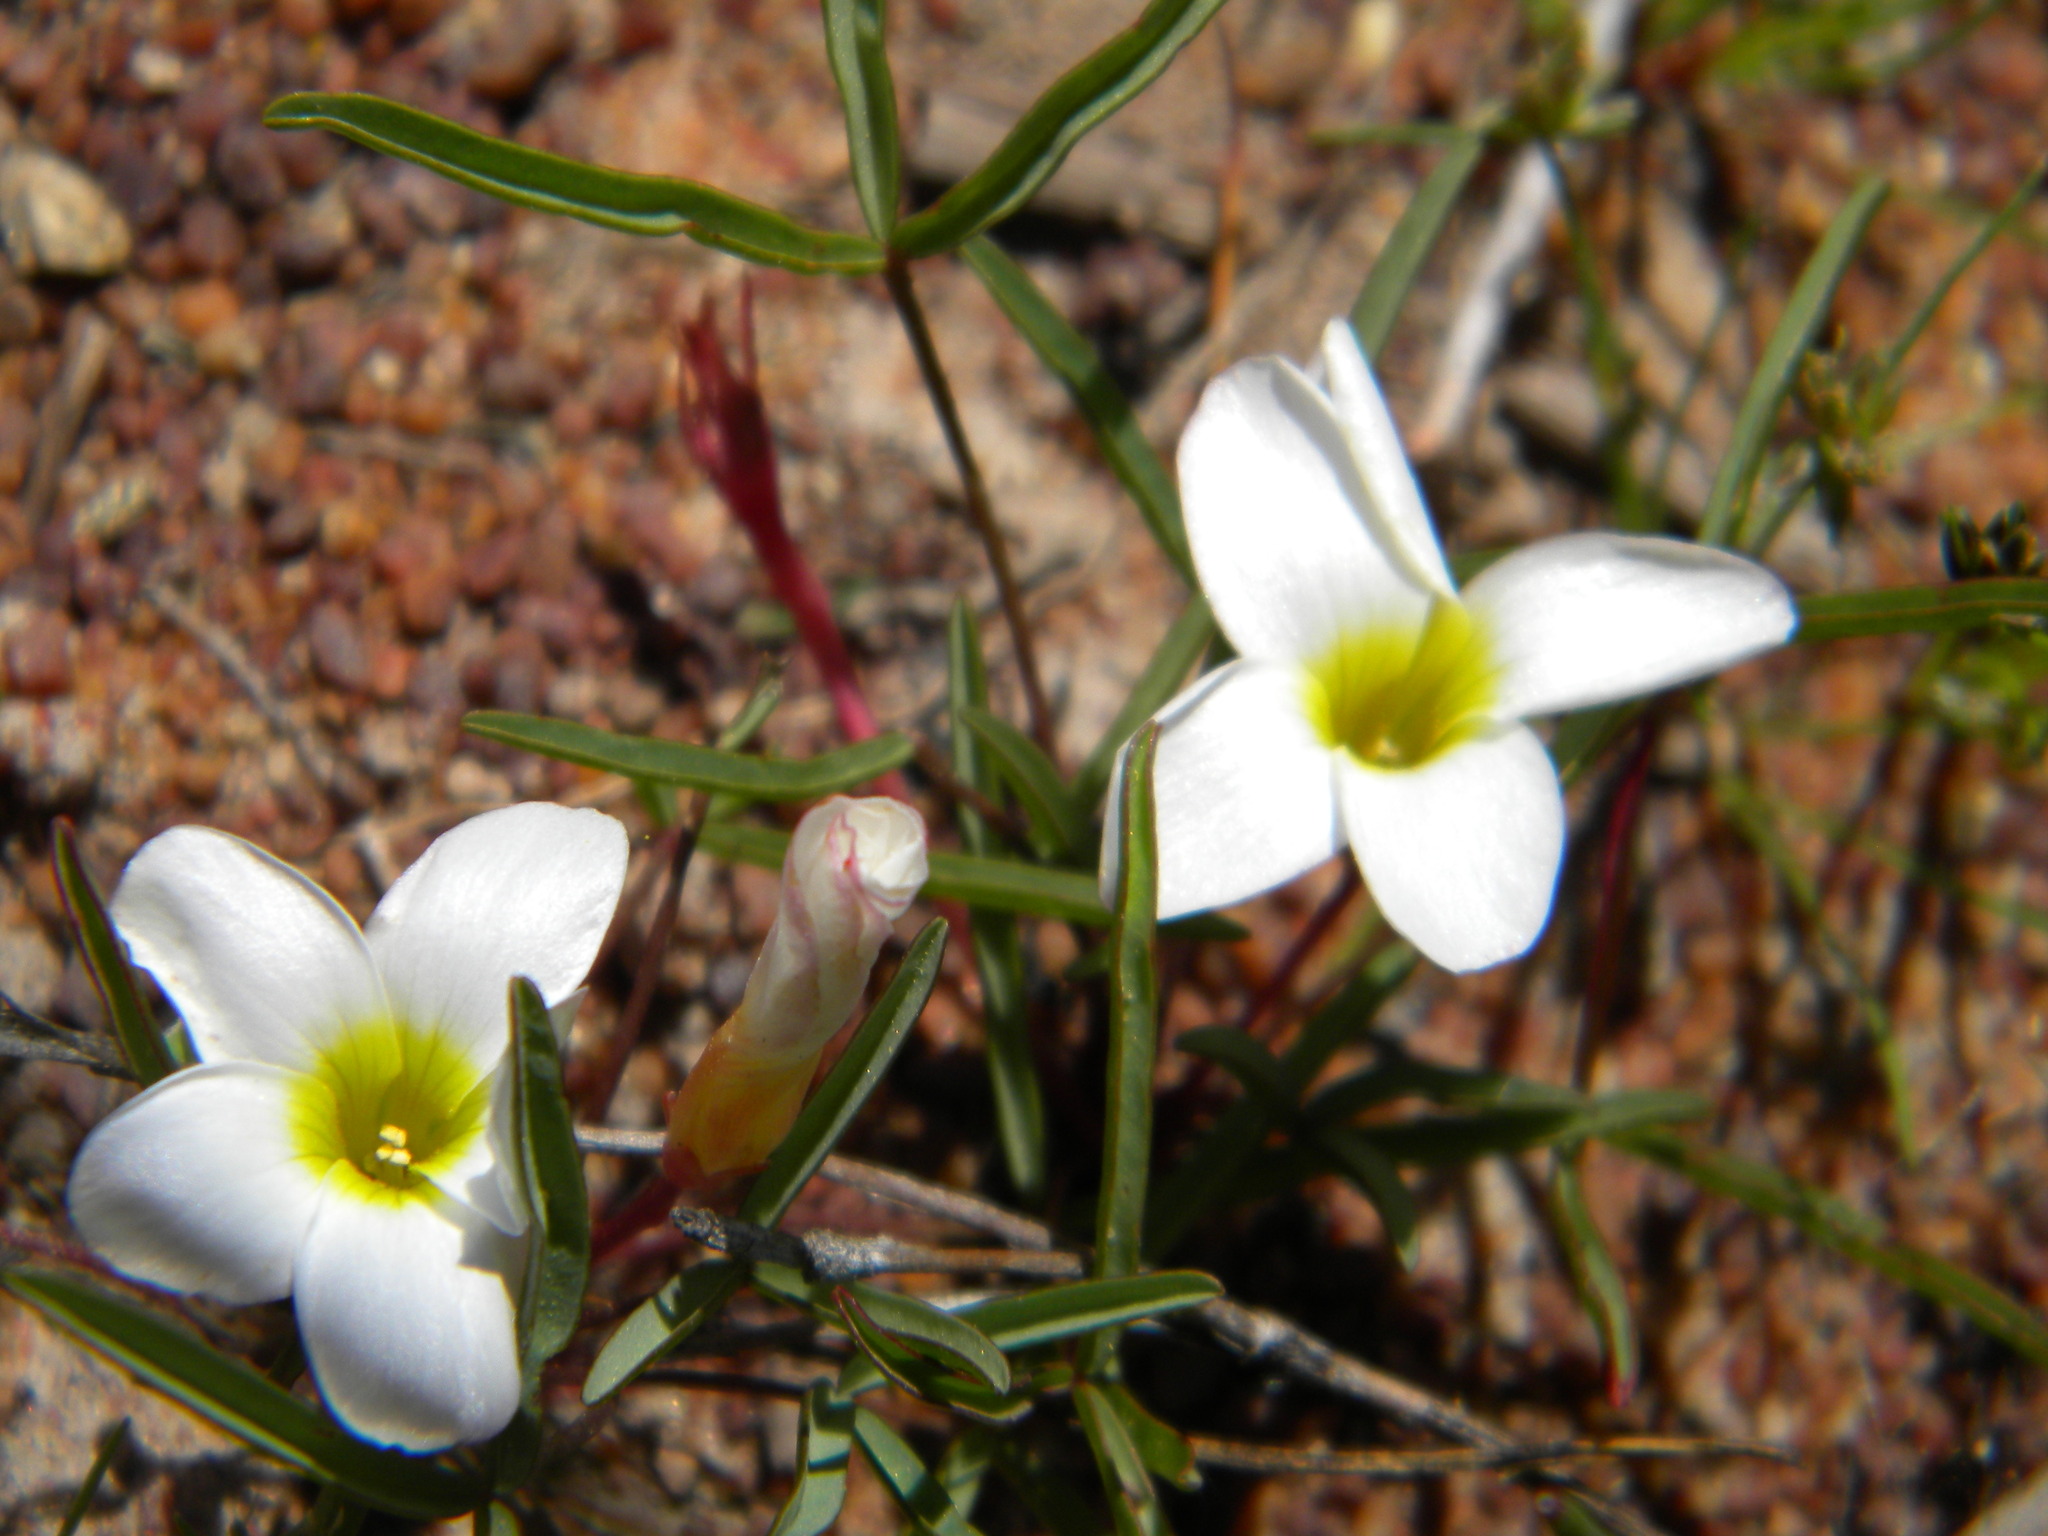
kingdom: Plantae
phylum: Tracheophyta
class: Magnoliopsida
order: Oxalidales
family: Oxalidaceae
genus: Oxalis
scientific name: Oxalis stictocheila
